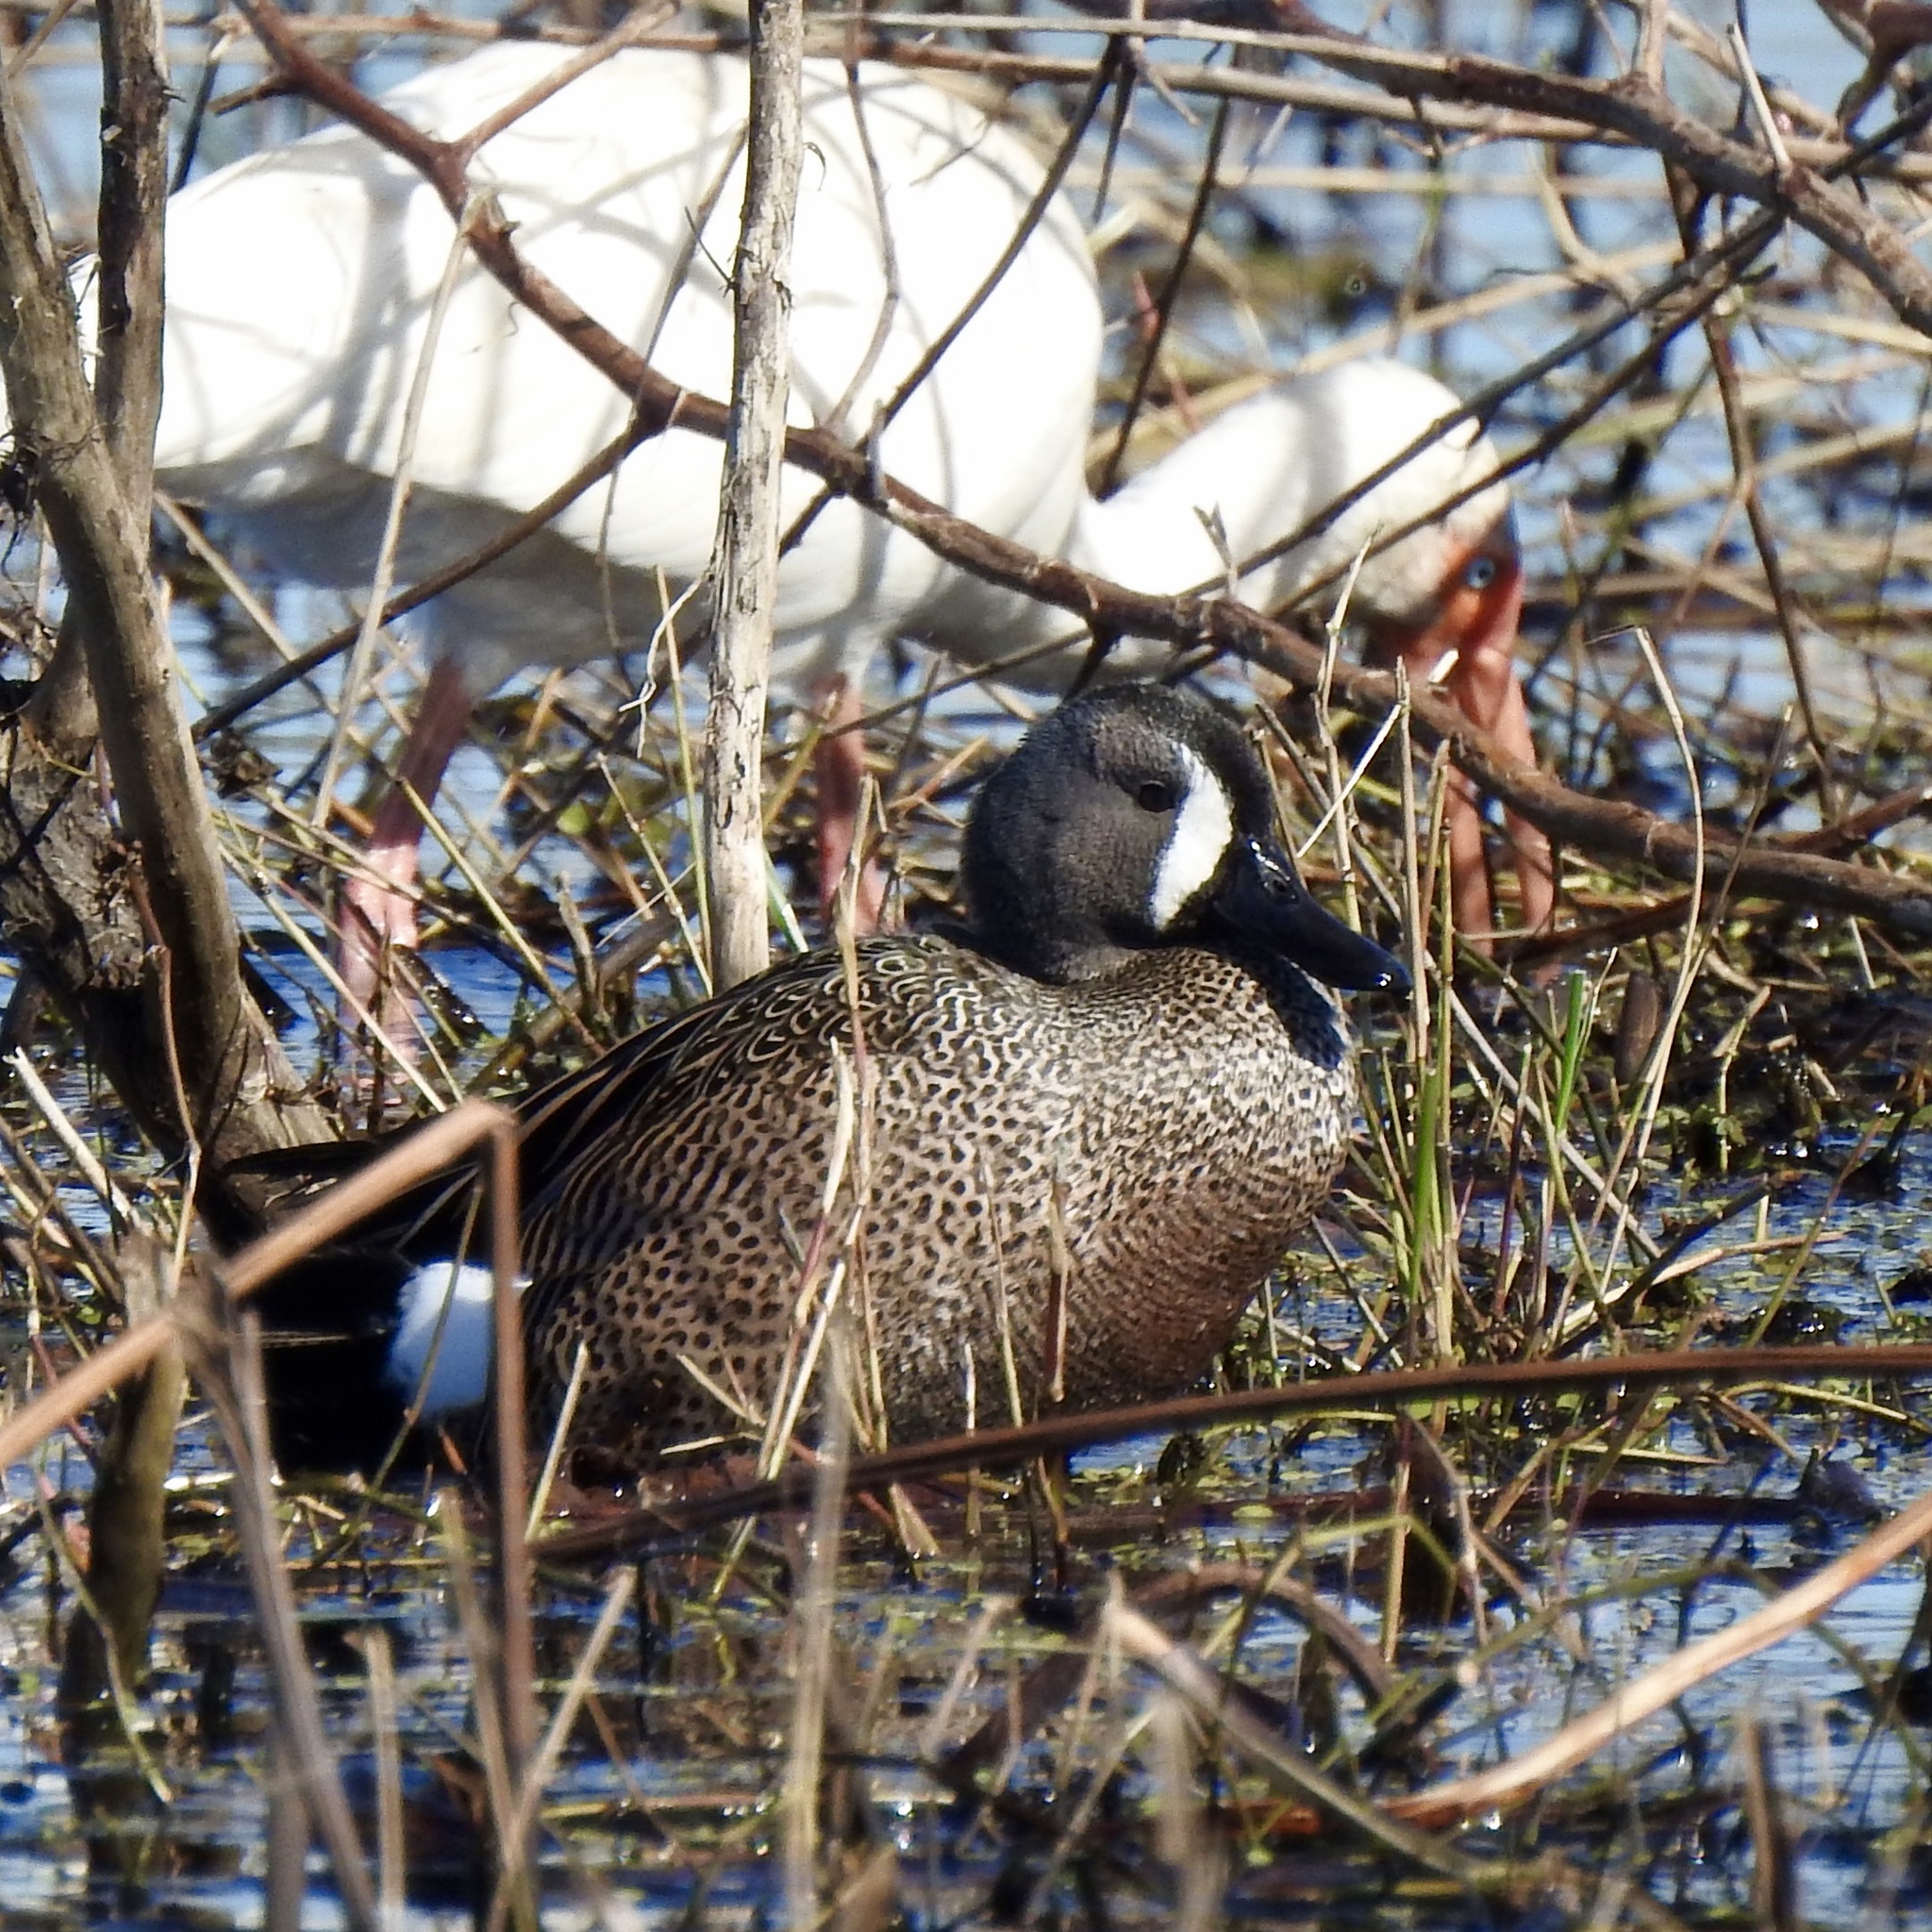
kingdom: Animalia
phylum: Chordata
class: Aves
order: Anseriformes
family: Anatidae
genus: Spatula
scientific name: Spatula discors
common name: Blue-winged teal
